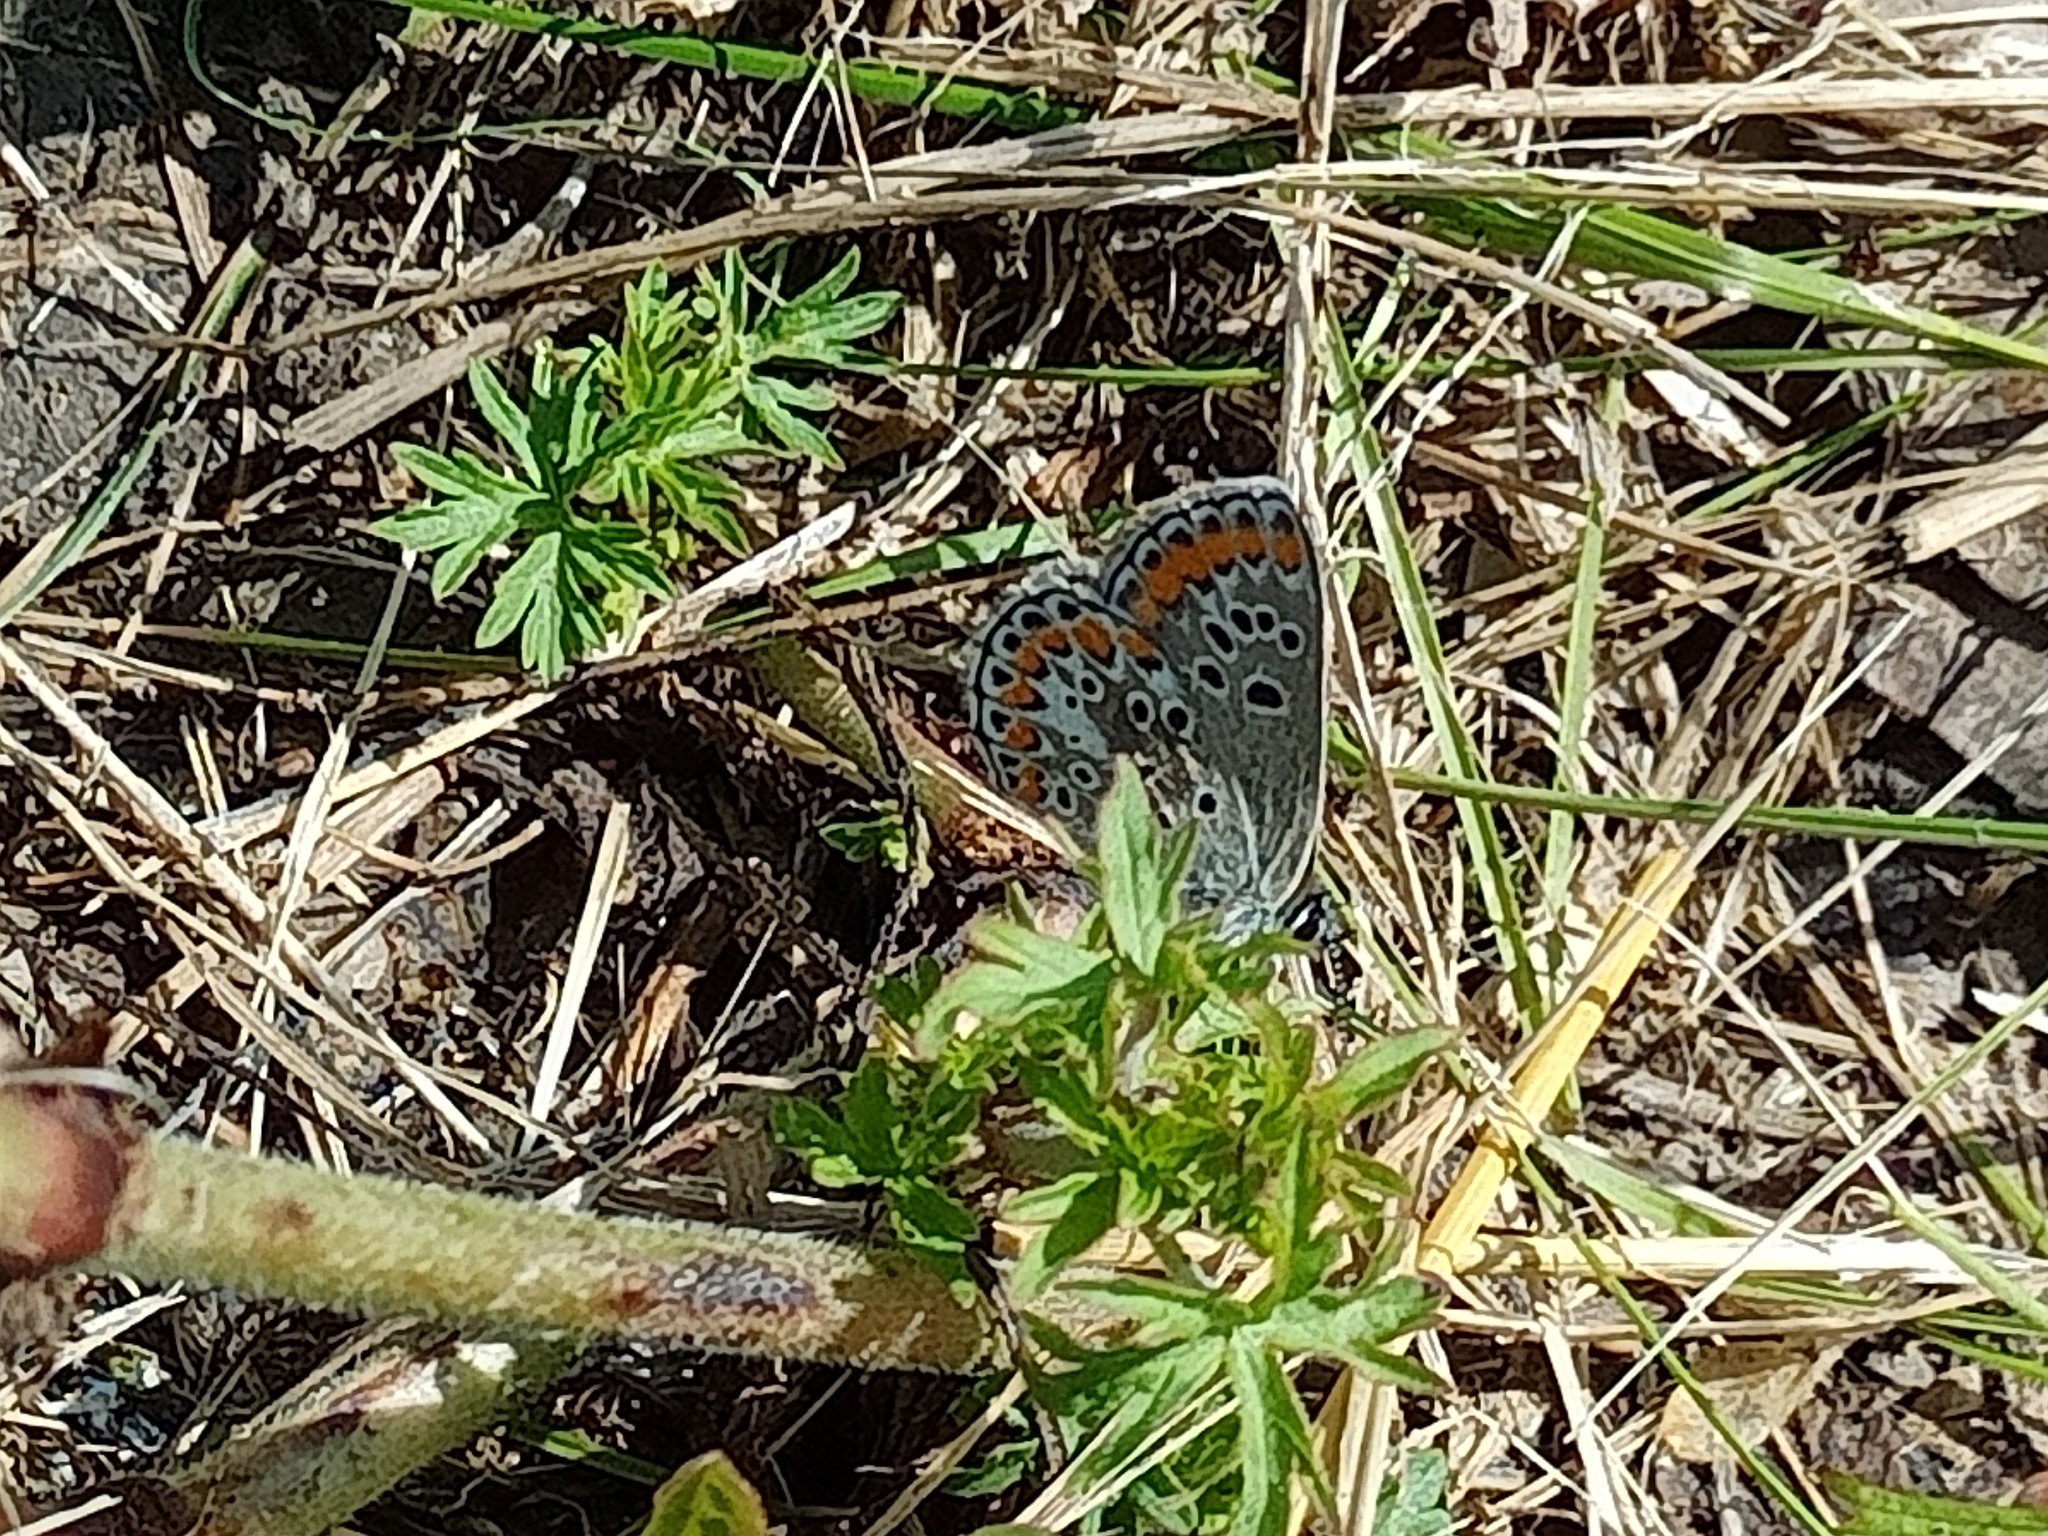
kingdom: Animalia
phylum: Arthropoda
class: Insecta
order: Lepidoptera
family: Lycaenidae
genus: Aricia
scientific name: Aricia agestis
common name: Brown argus
